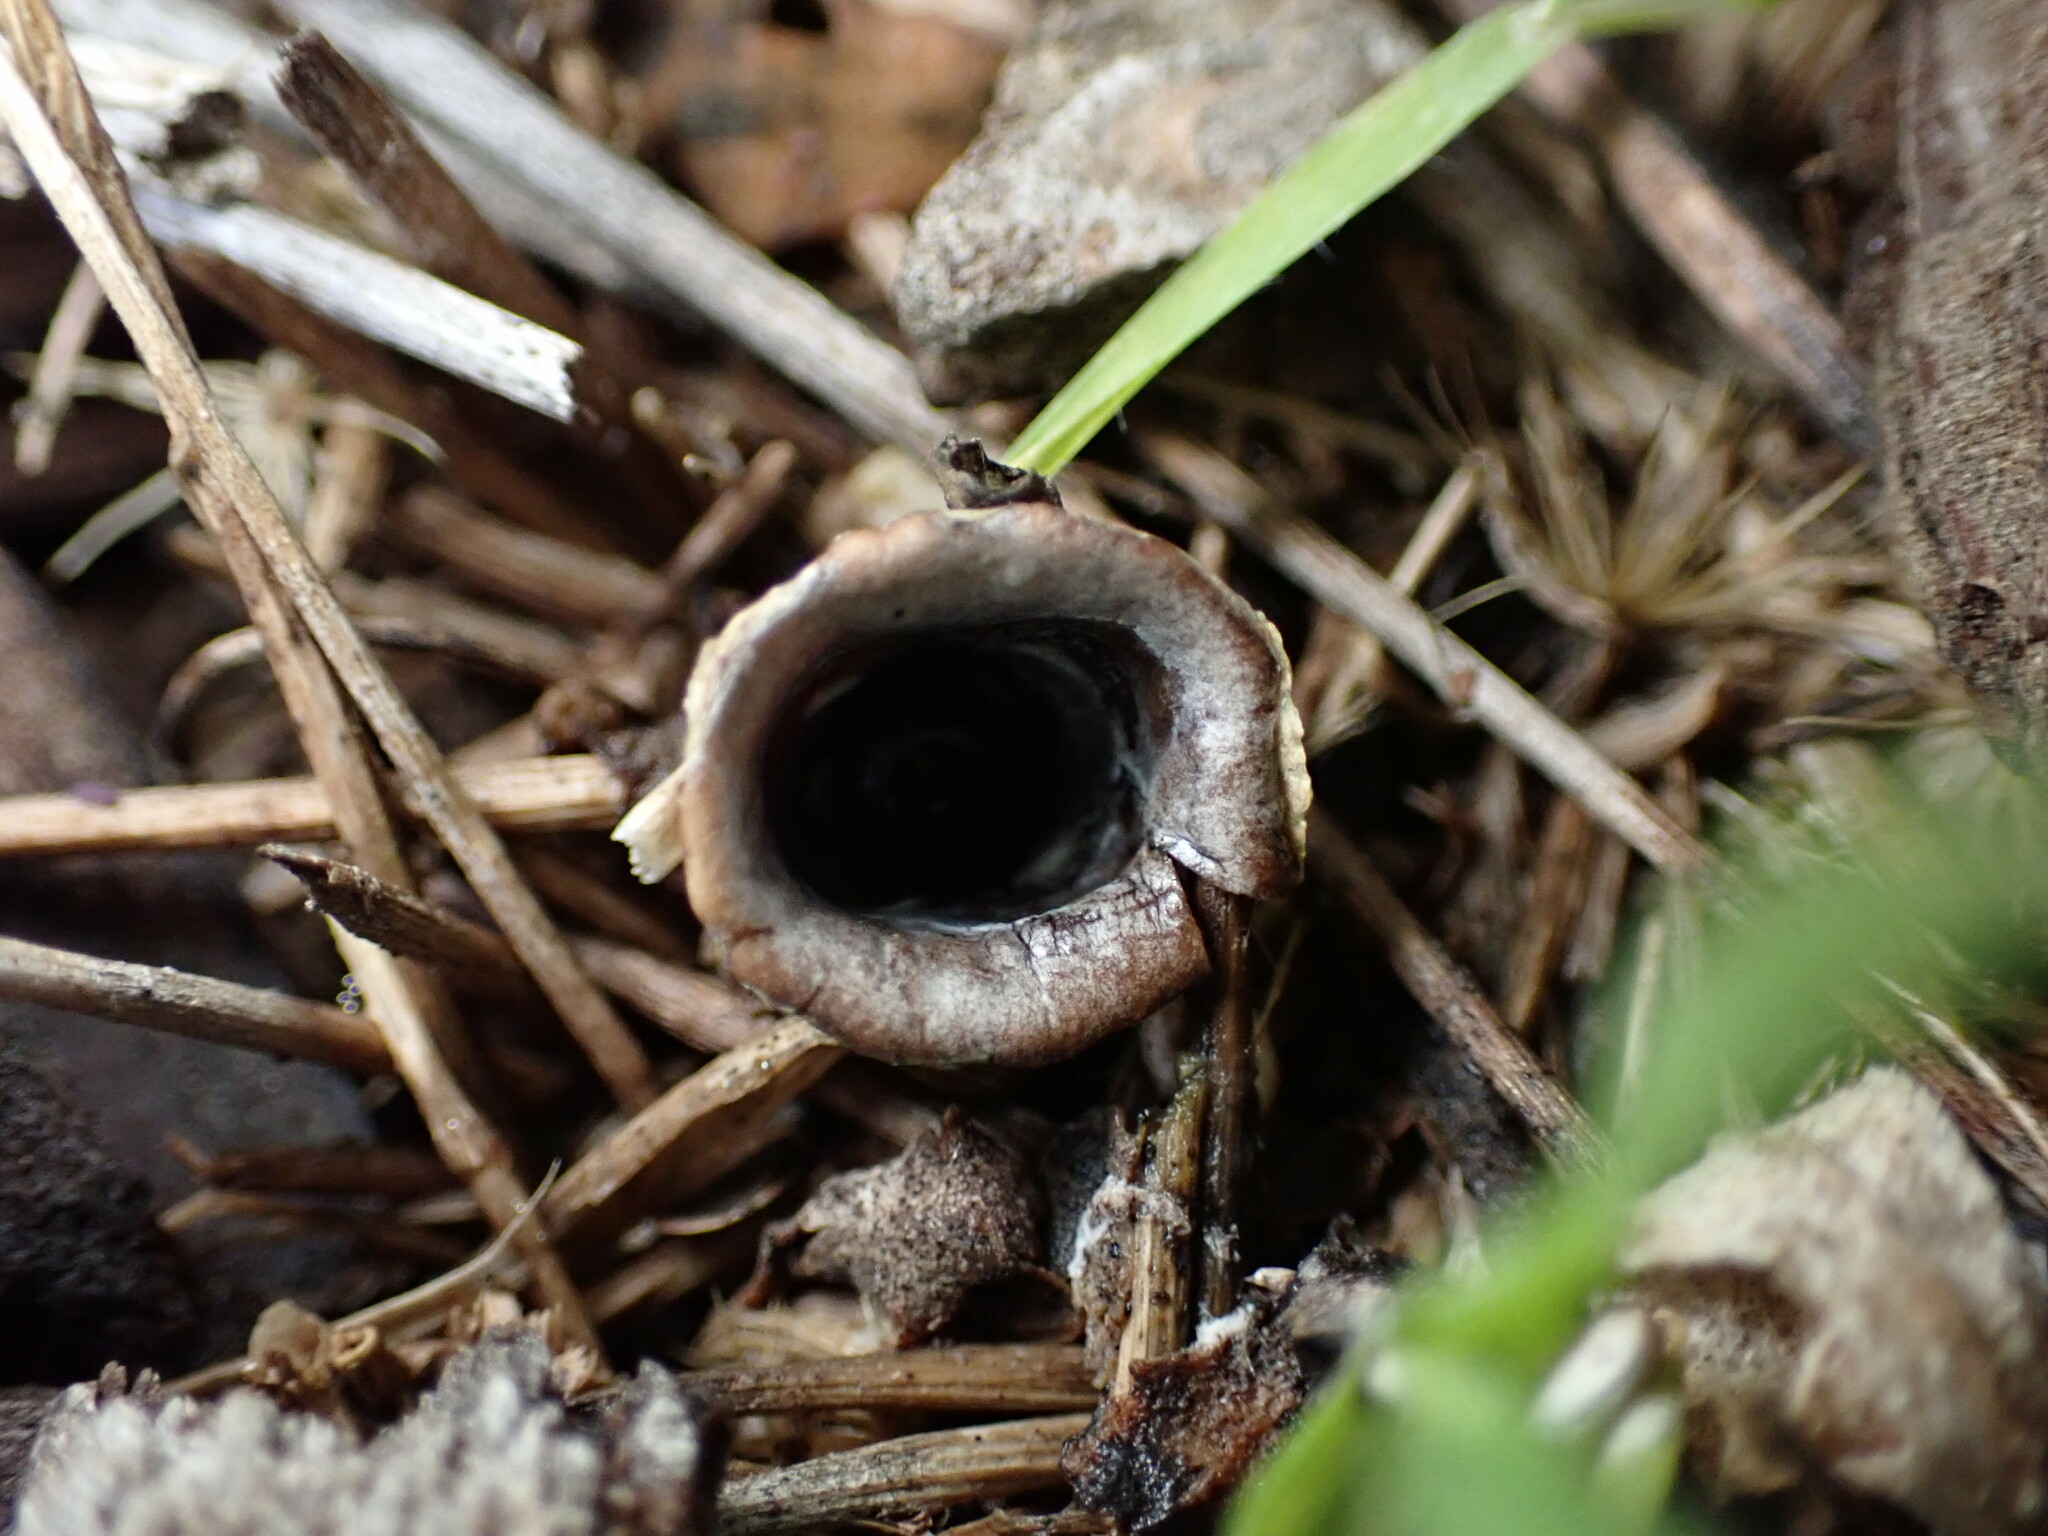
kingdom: Fungi
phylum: Basidiomycota
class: Agaricomycetes
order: Agaricales
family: Agaricaceae
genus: Cyathus
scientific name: Cyathus olla
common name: Field bird's nest
